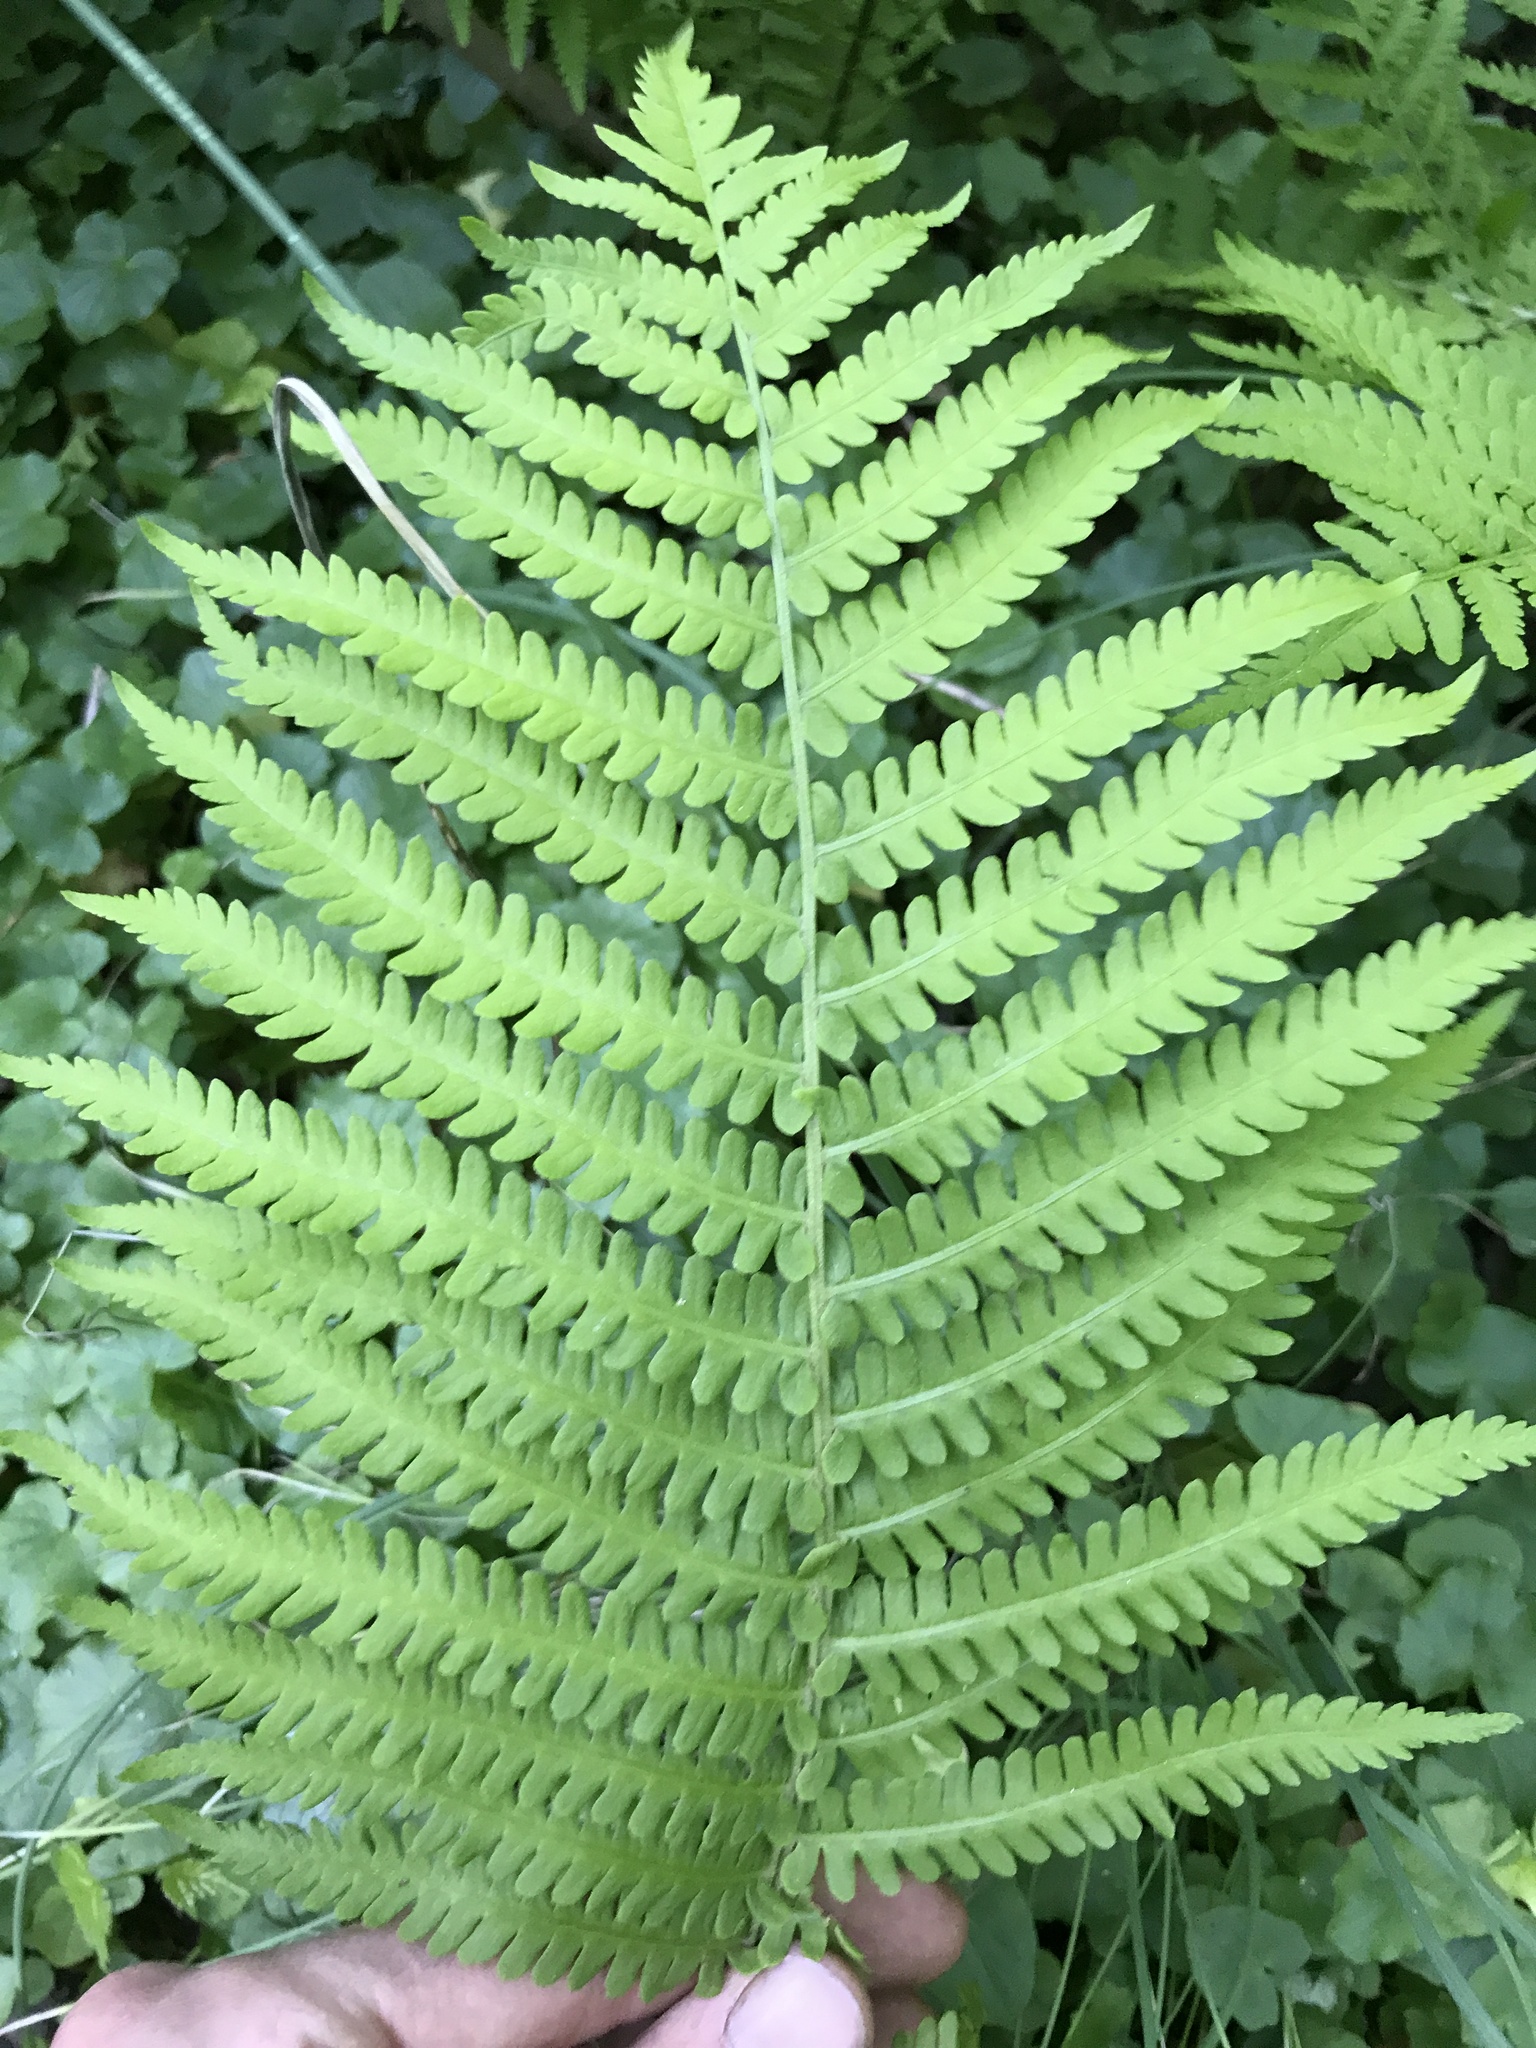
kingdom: Plantae
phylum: Tracheophyta
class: Polypodiopsida
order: Polypodiales
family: Onocleaceae
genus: Matteuccia
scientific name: Matteuccia struthiopteris
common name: Ostrich fern
